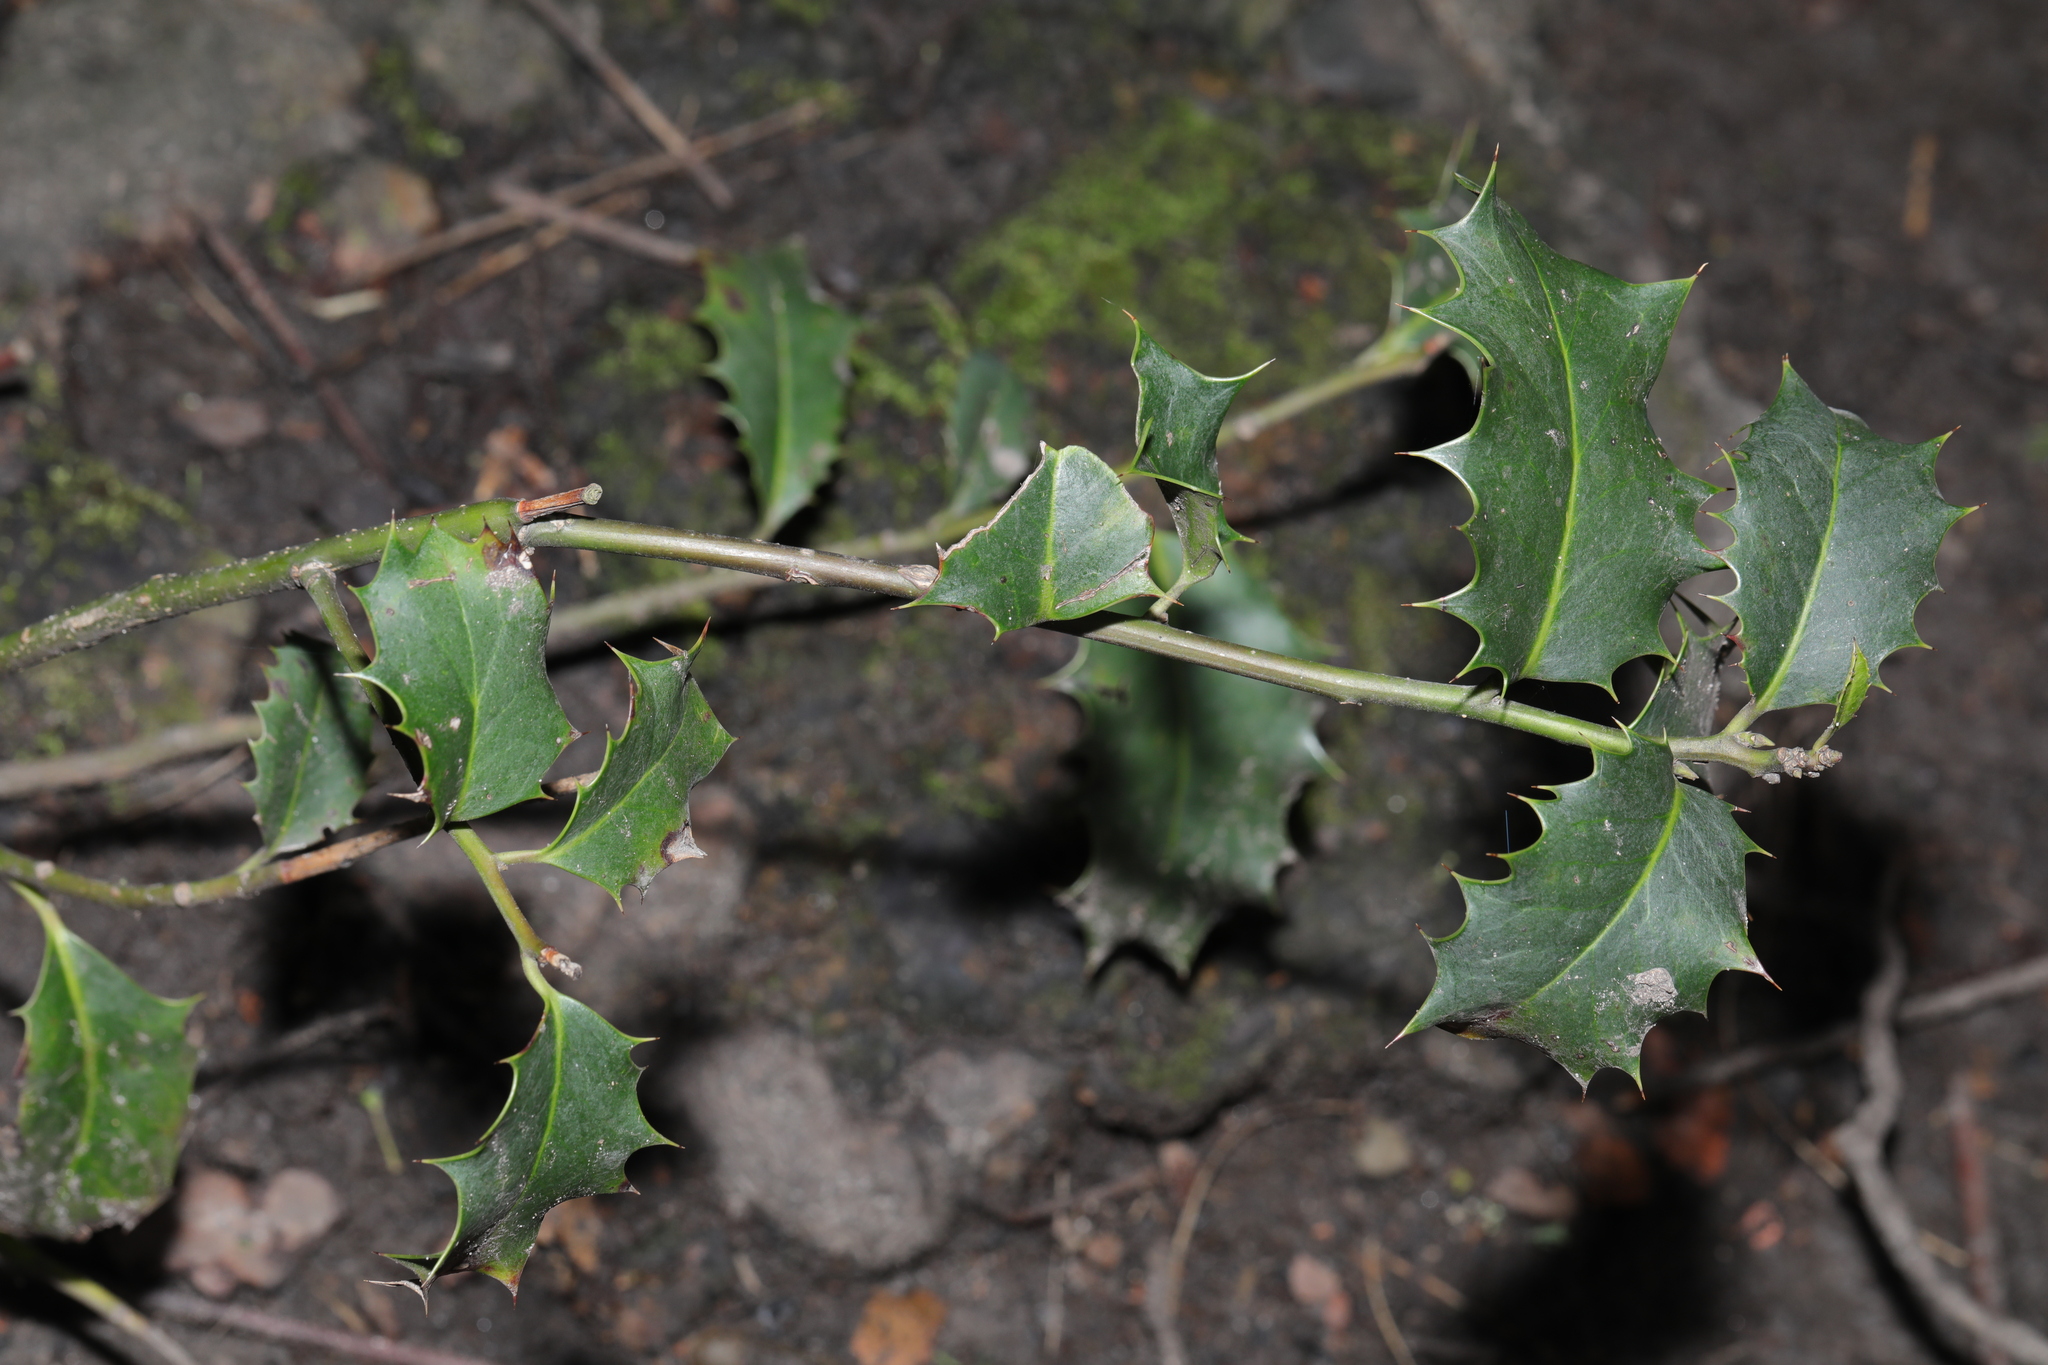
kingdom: Plantae
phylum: Tracheophyta
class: Magnoliopsida
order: Aquifoliales
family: Aquifoliaceae
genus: Ilex
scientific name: Ilex aquifolium
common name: English holly
